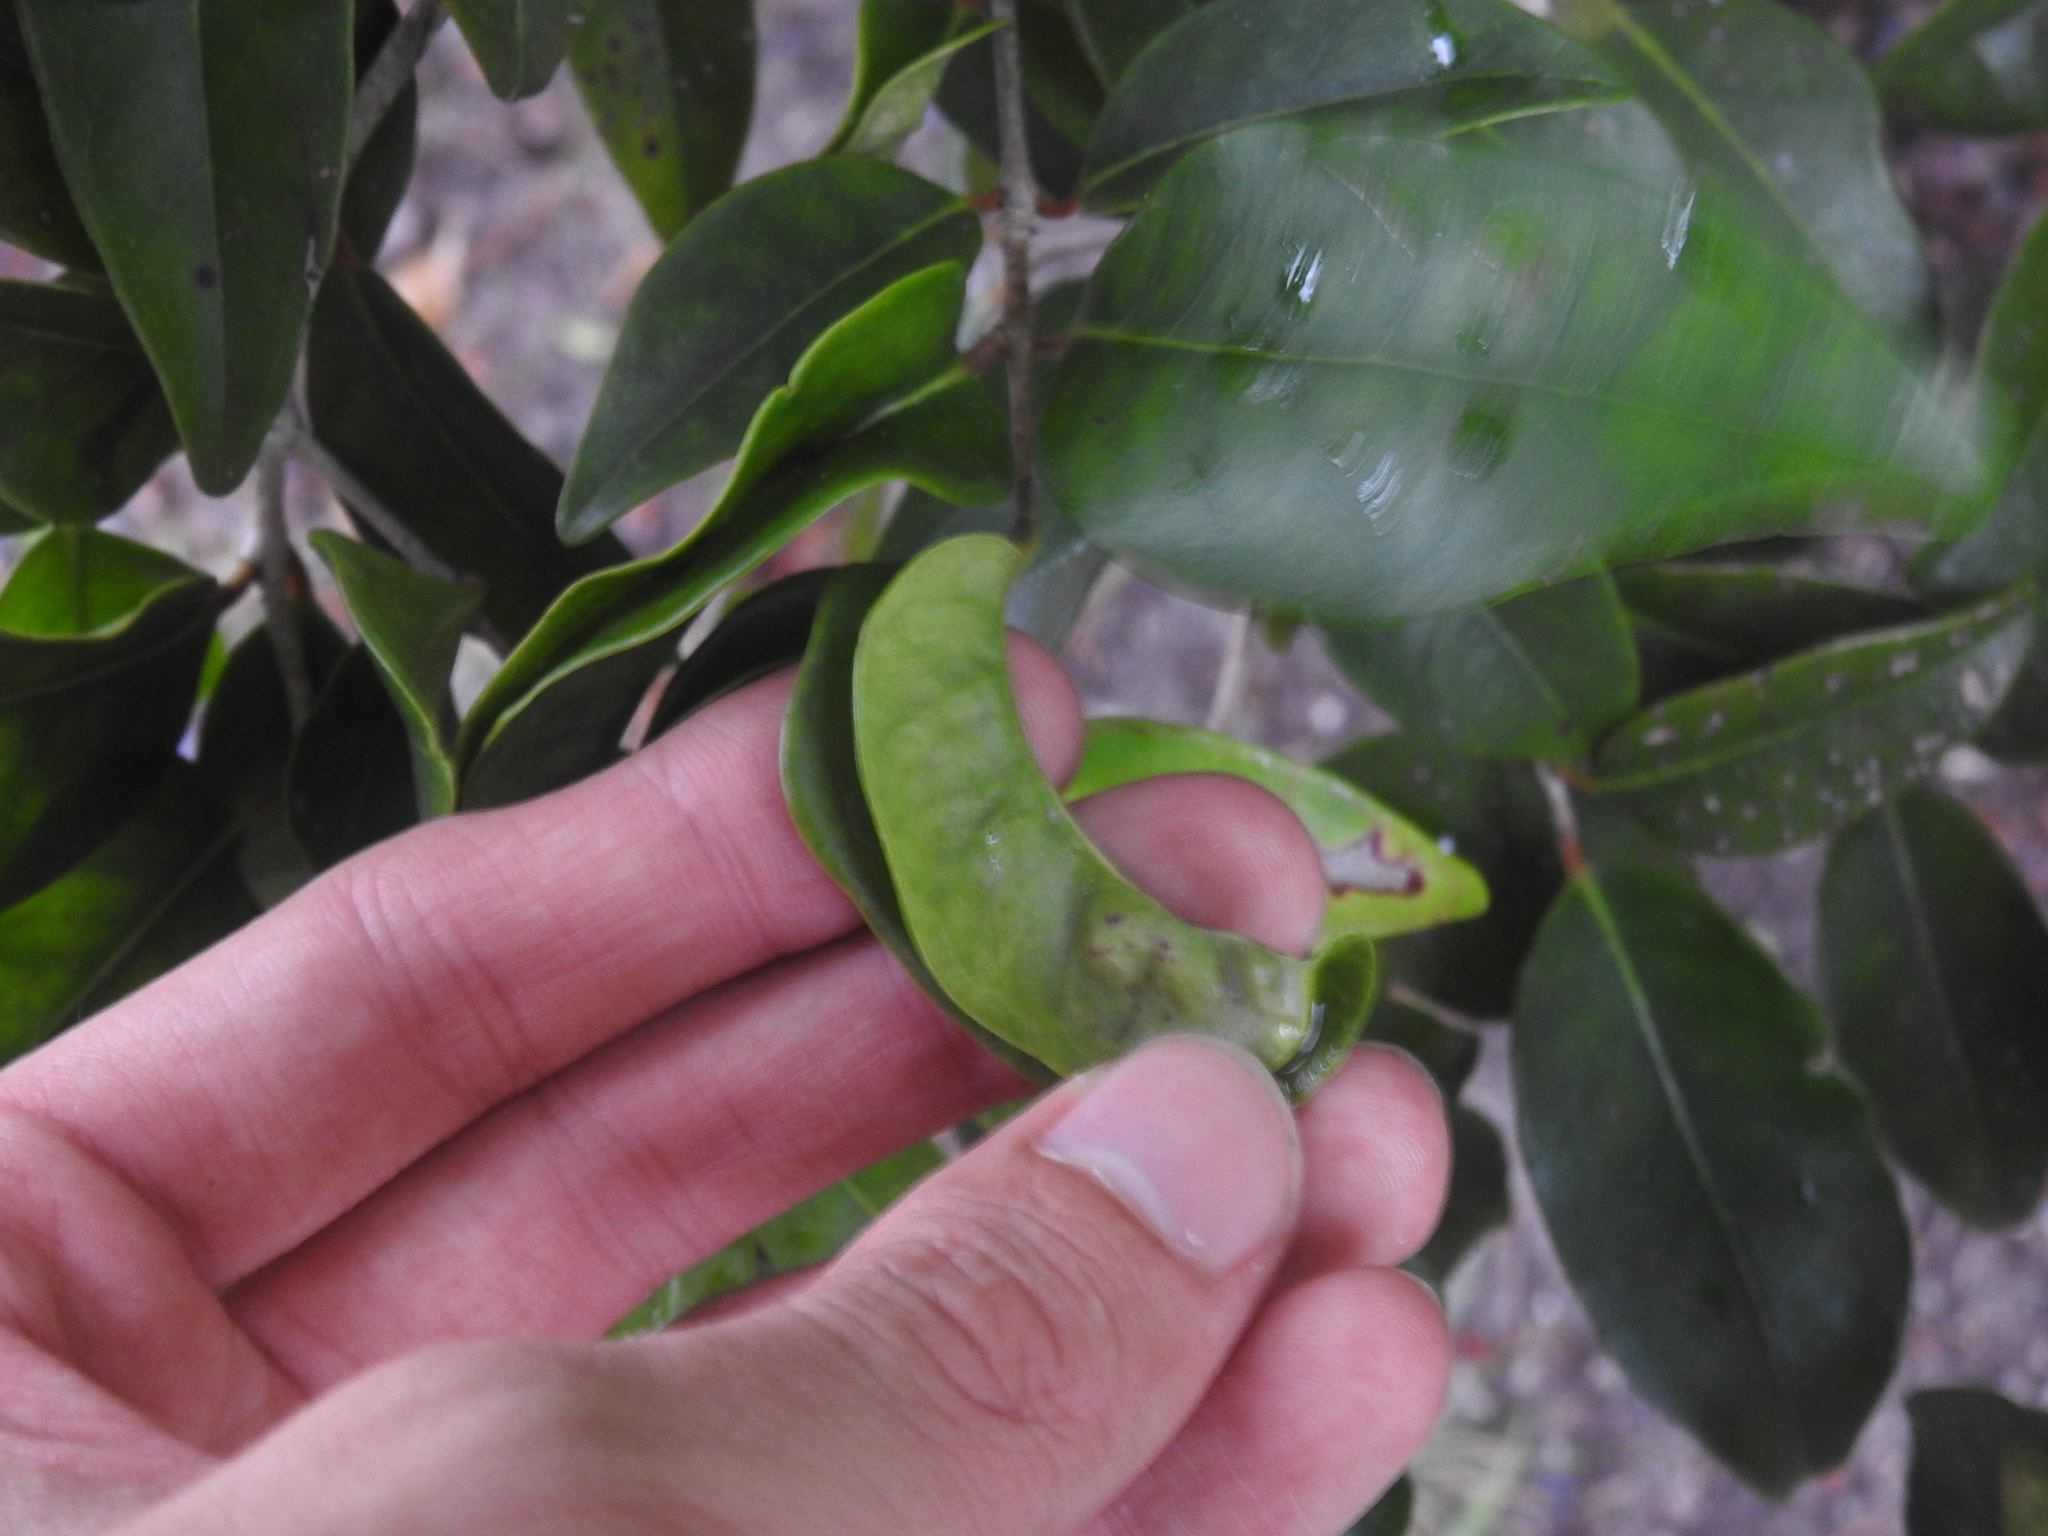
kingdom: Plantae
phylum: Tracheophyta
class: Magnoliopsida
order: Myrtales
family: Myrtaceae
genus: Eugenia
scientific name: Eugenia axillaris
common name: Choaky berry
